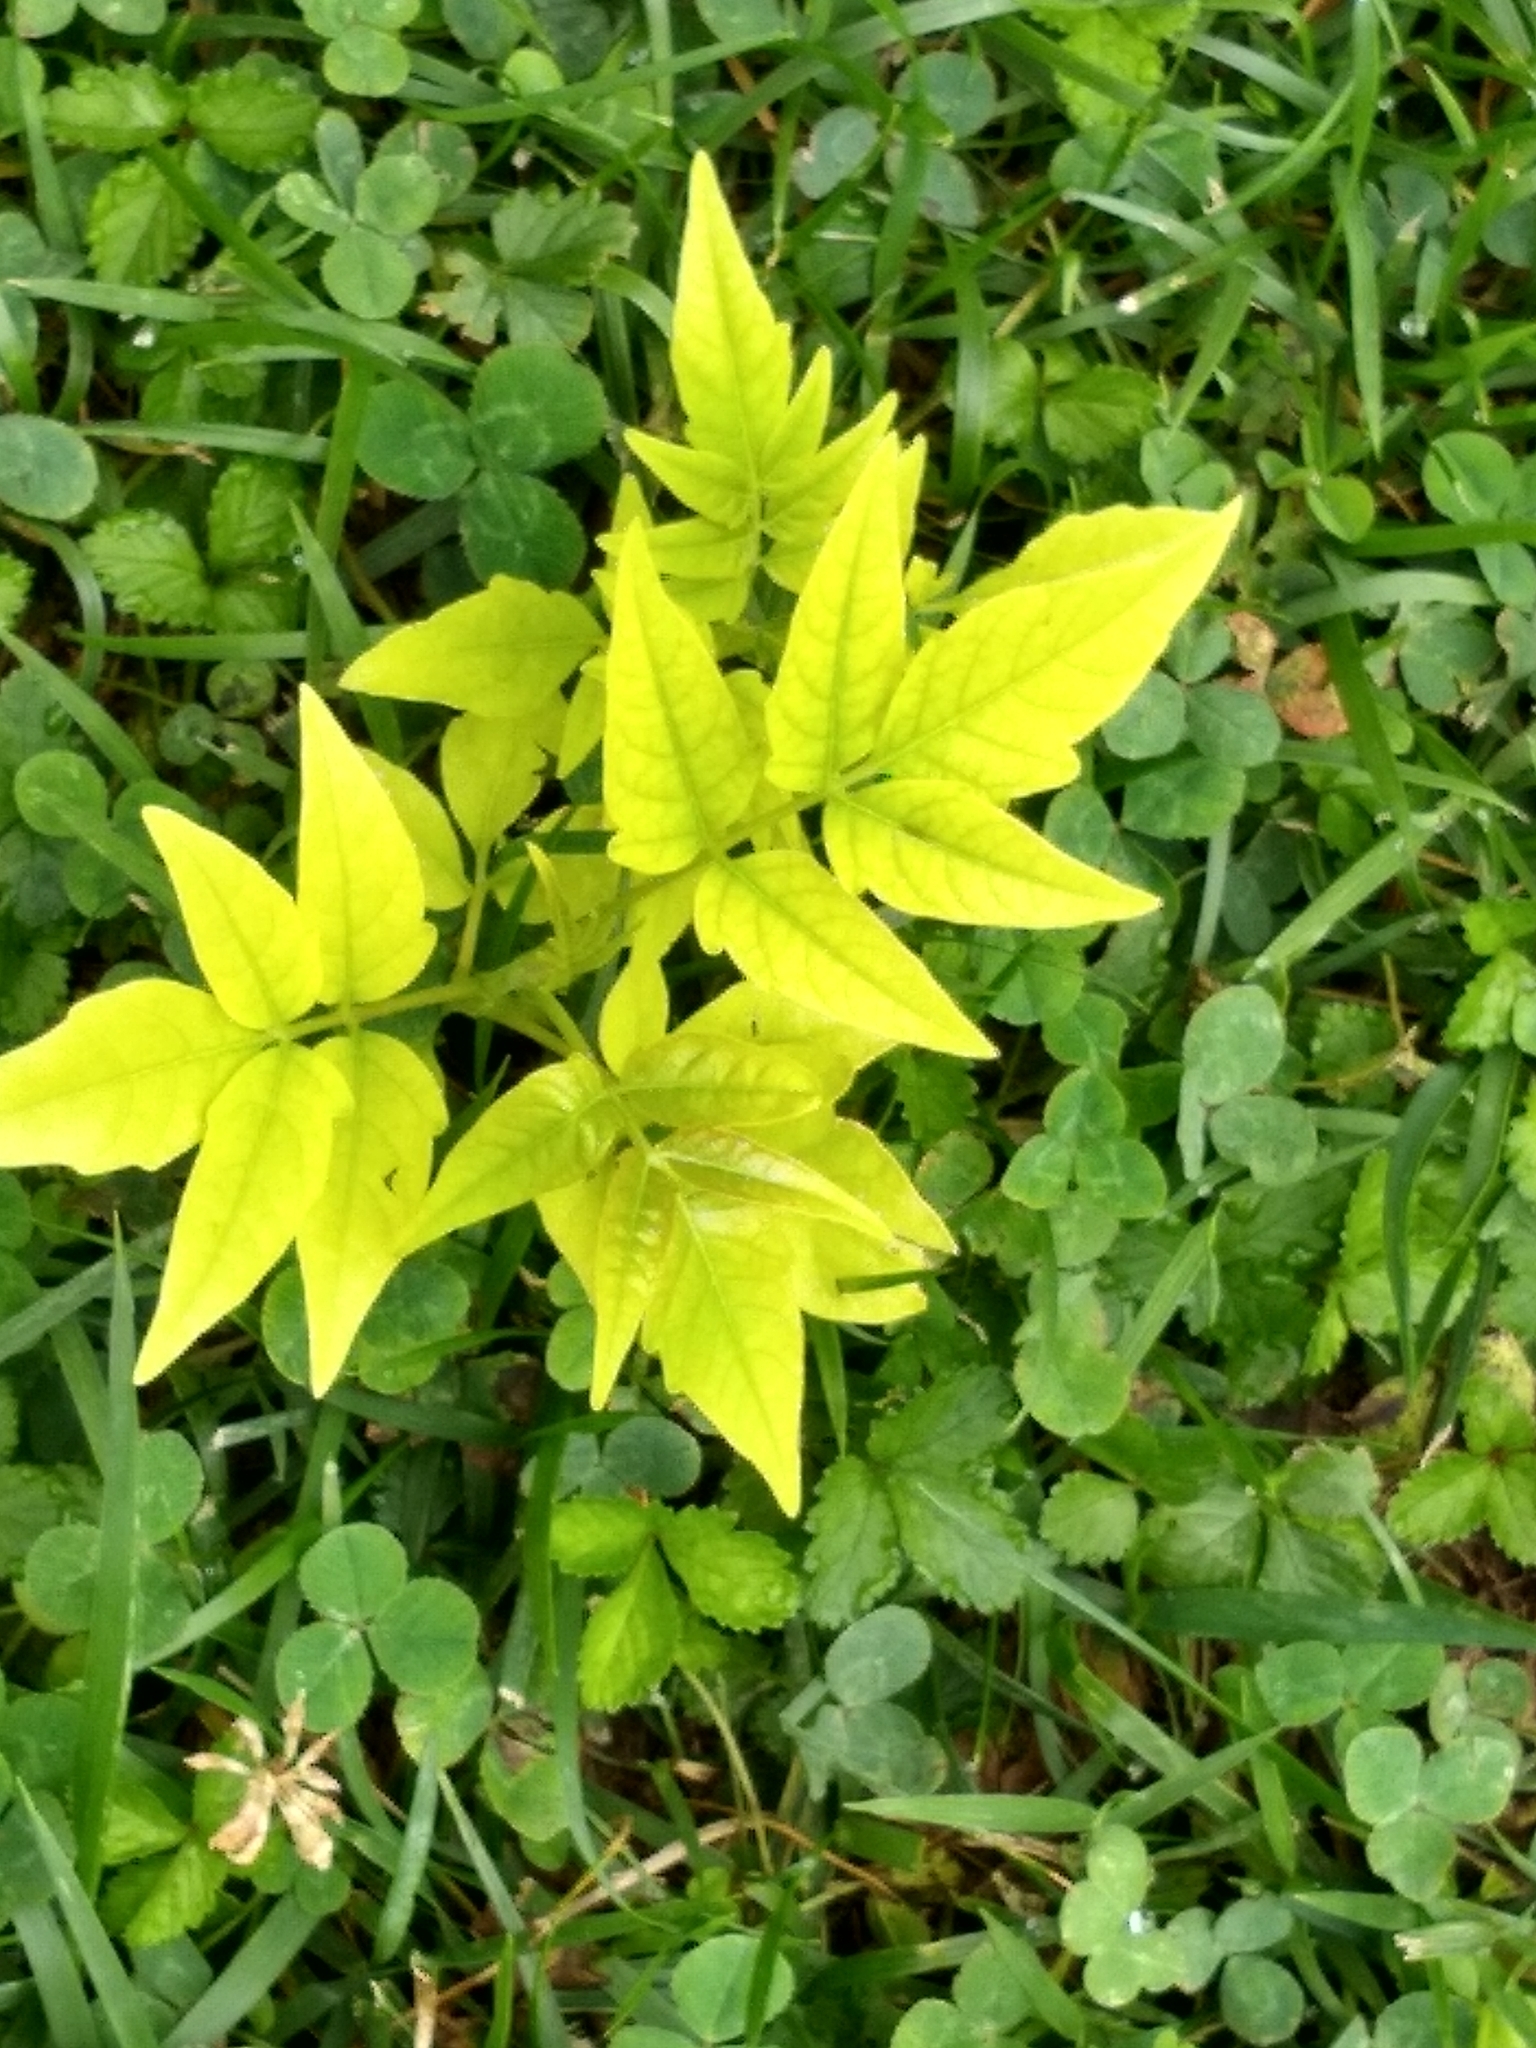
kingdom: Plantae
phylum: Tracheophyta
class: Magnoliopsida
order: Sapindales
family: Simaroubaceae
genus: Ailanthus
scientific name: Ailanthus altissima
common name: Tree-of-heaven
